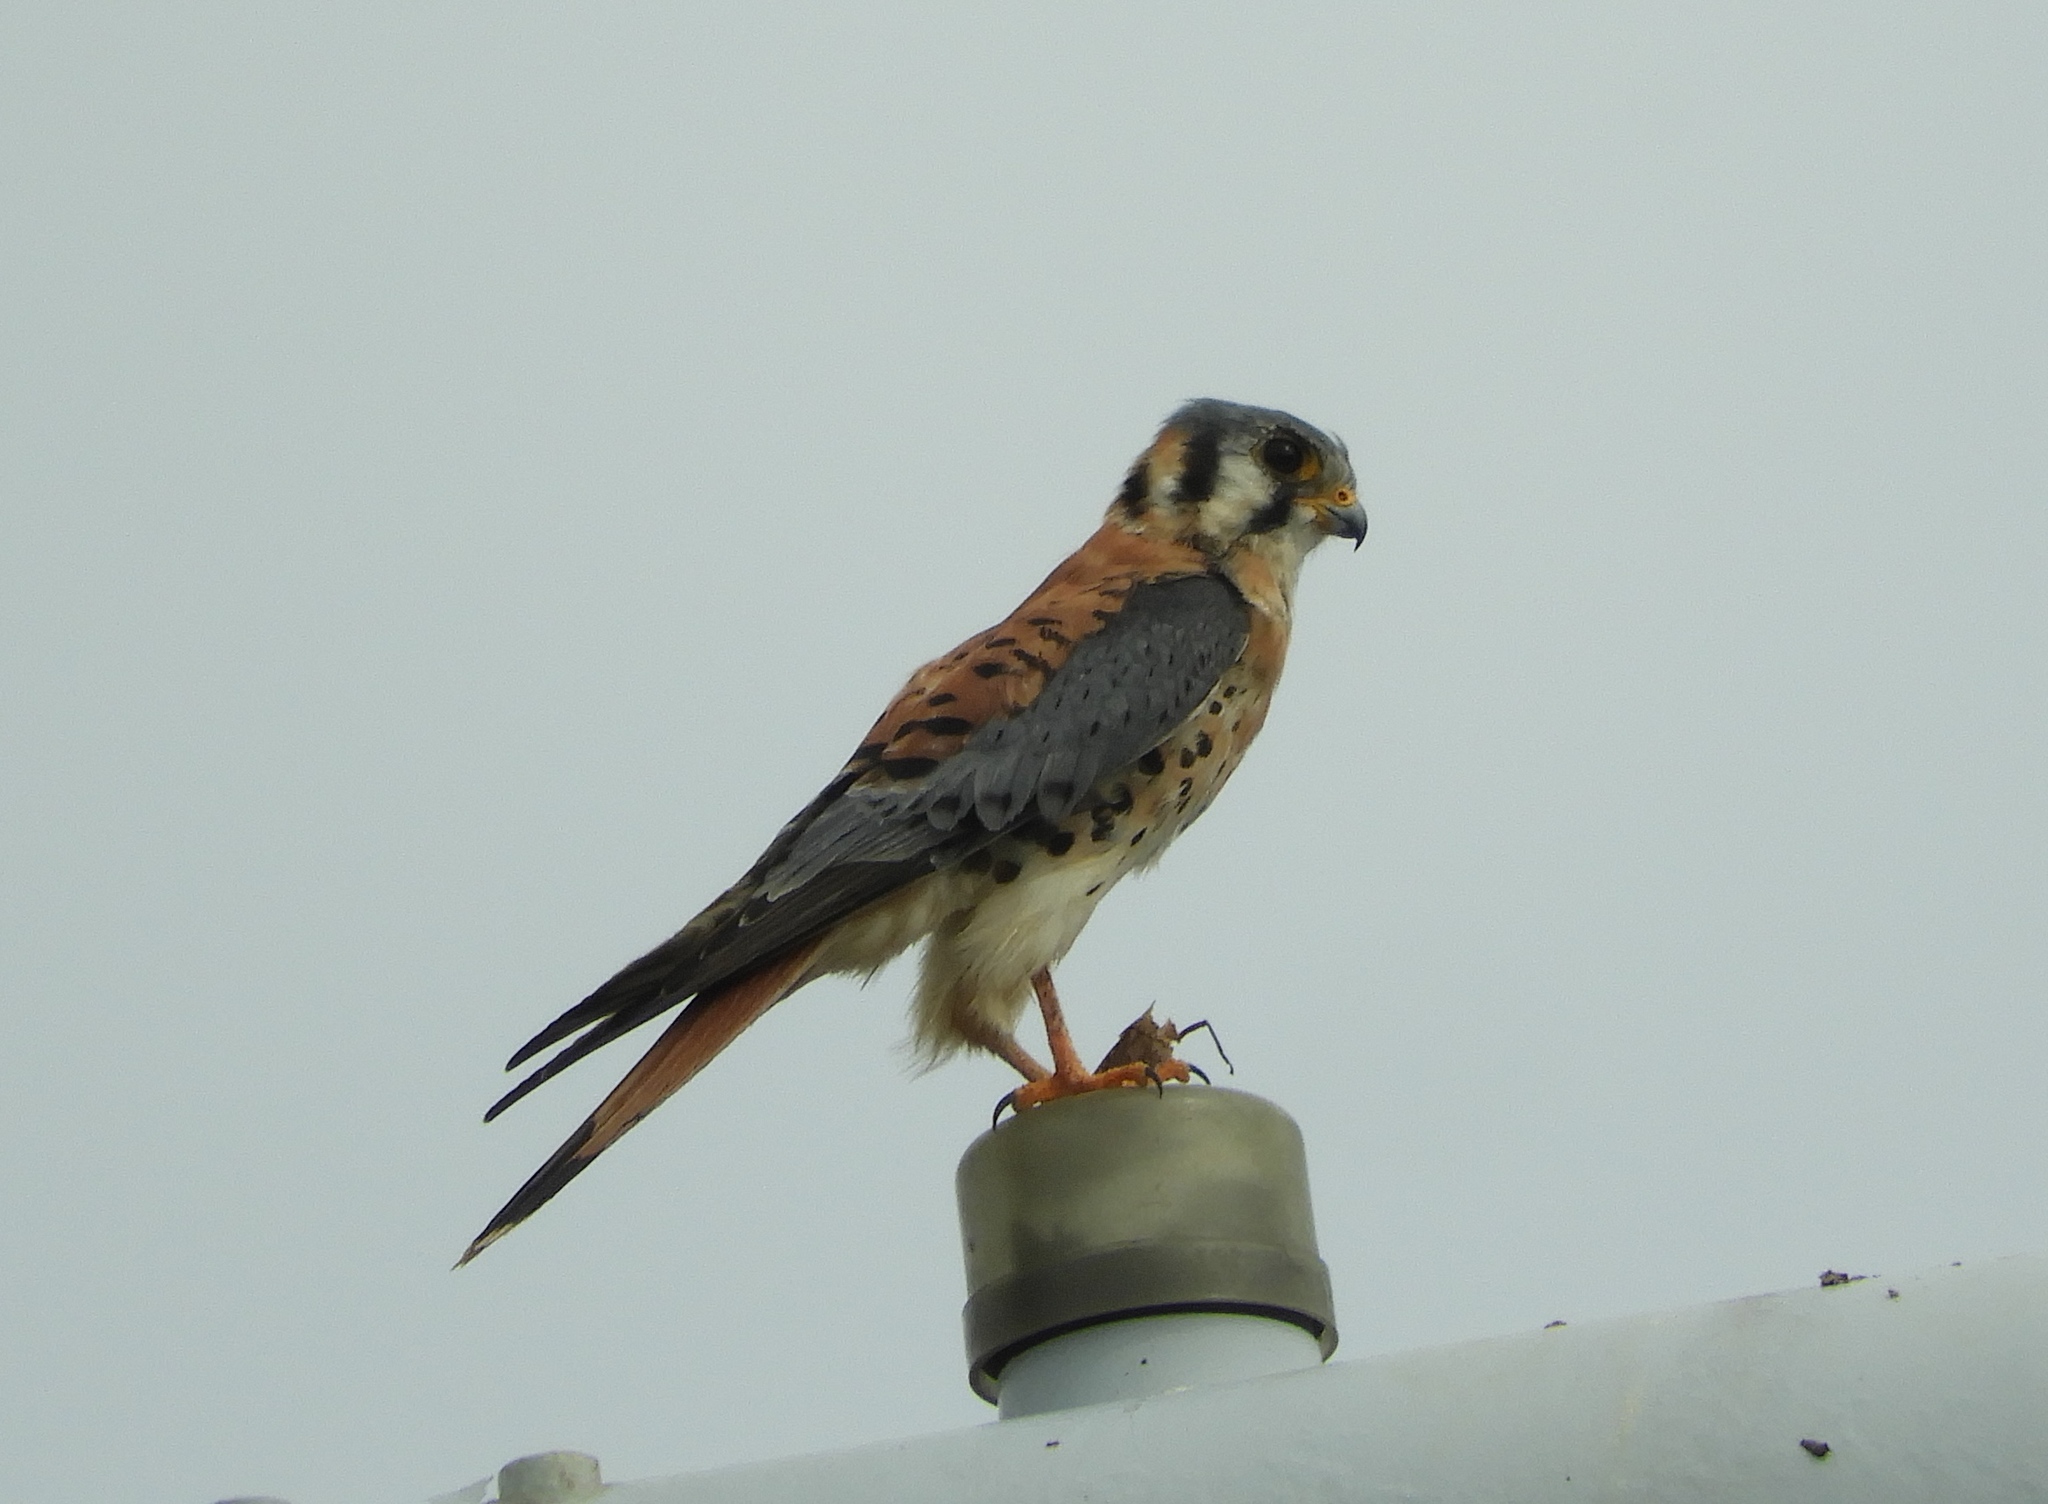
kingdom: Animalia
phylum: Chordata
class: Aves
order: Falconiformes
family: Falconidae
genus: Falco
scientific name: Falco sparverius
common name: American kestrel
